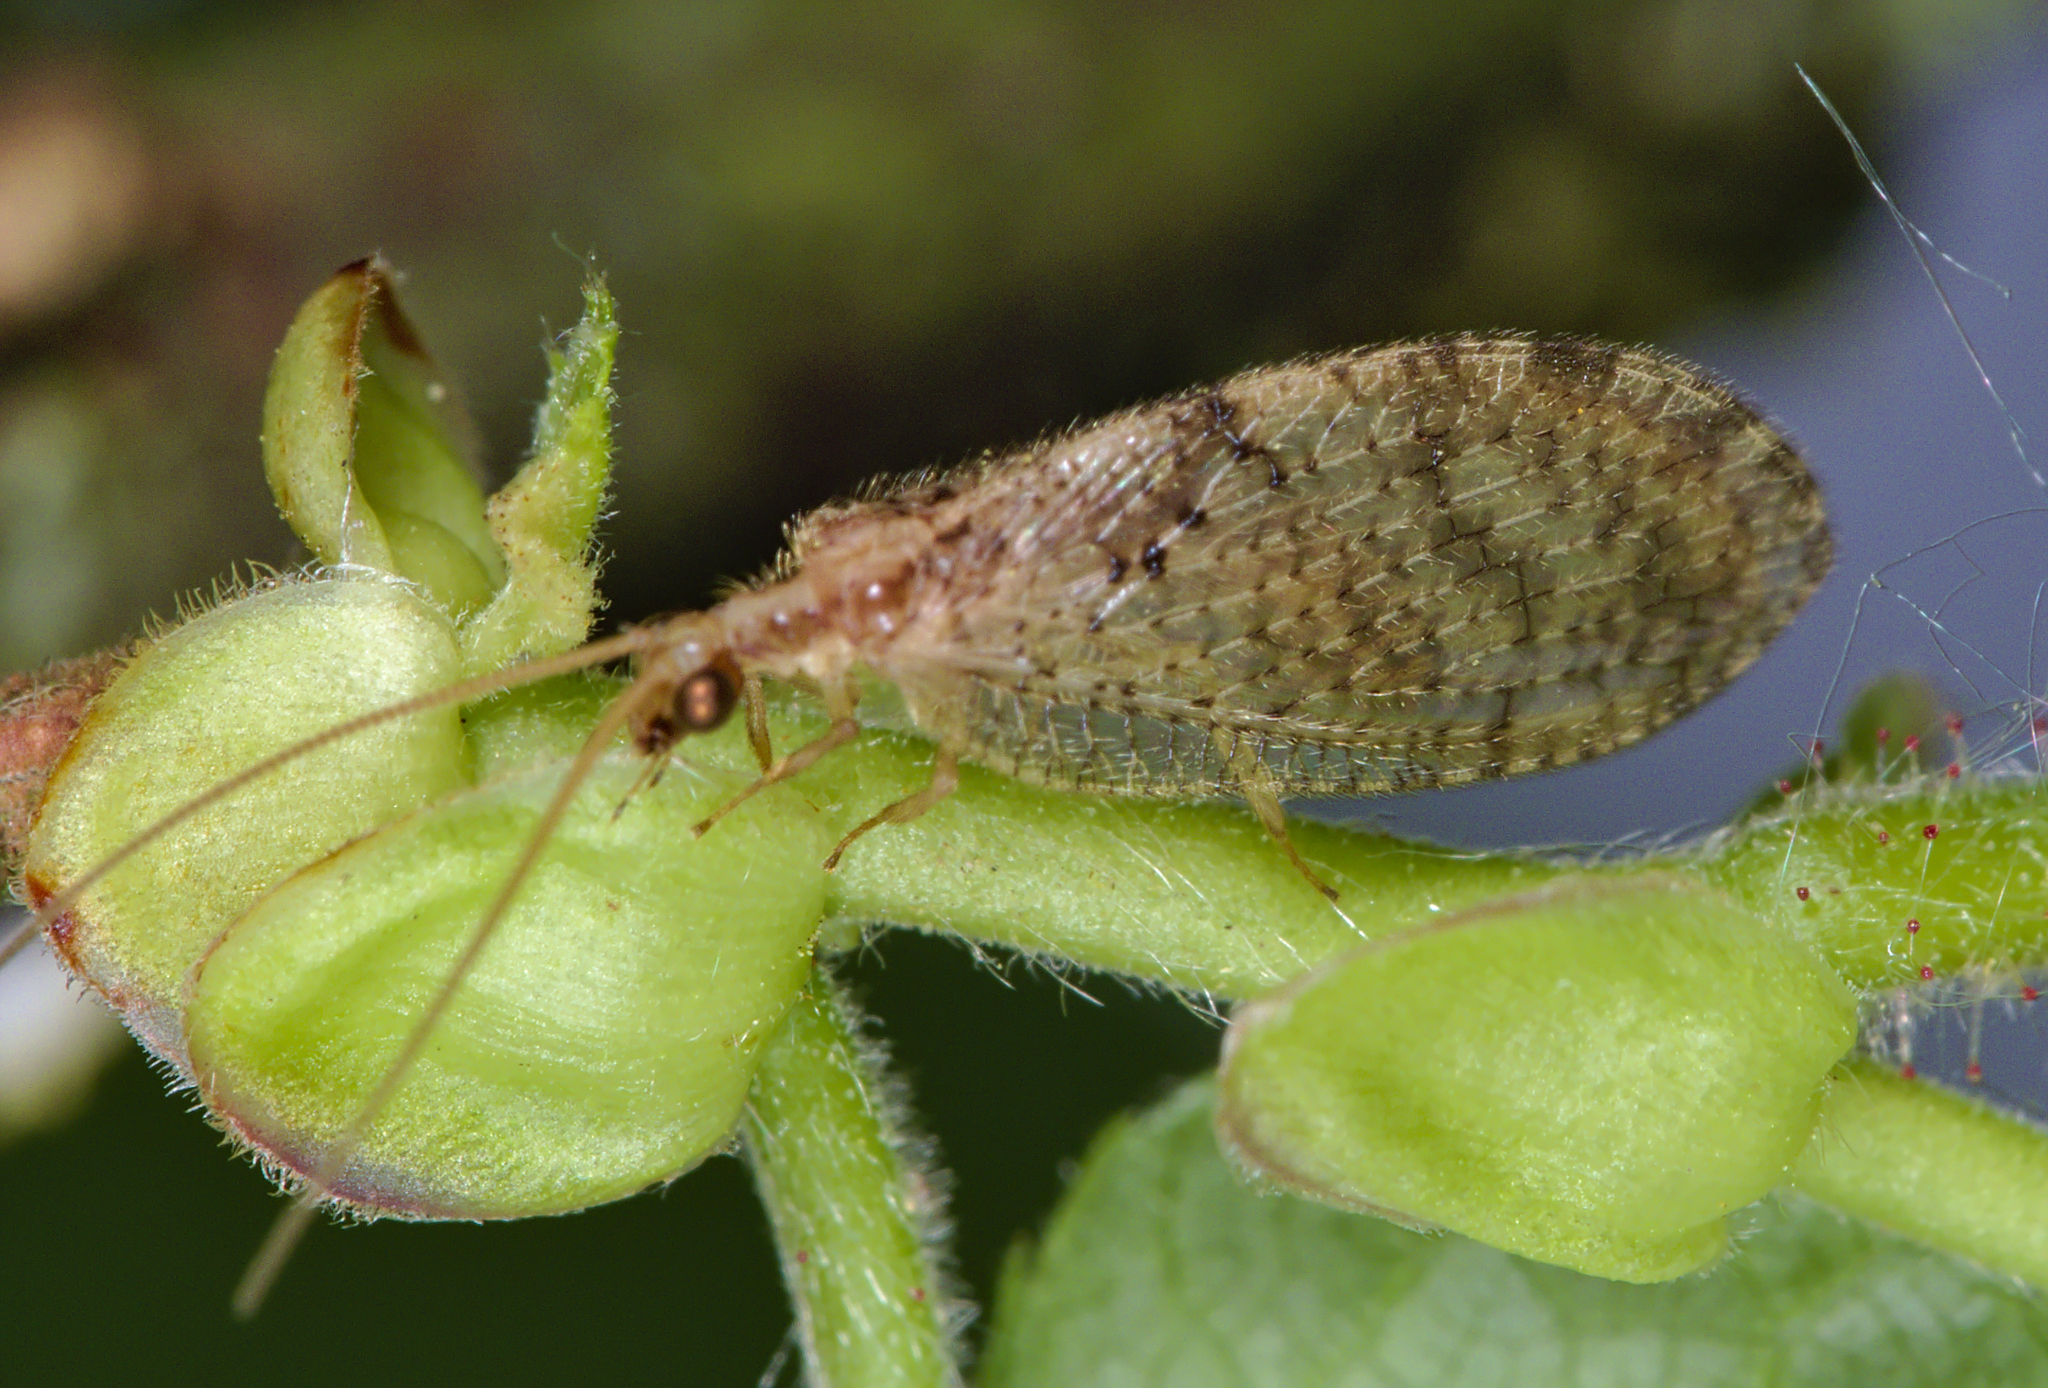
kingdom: Animalia
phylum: Arthropoda
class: Insecta
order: Neuroptera
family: Hemerobiidae
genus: Hemerobius
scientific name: Hemerobius humulinus
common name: Humulin brown lacewing
